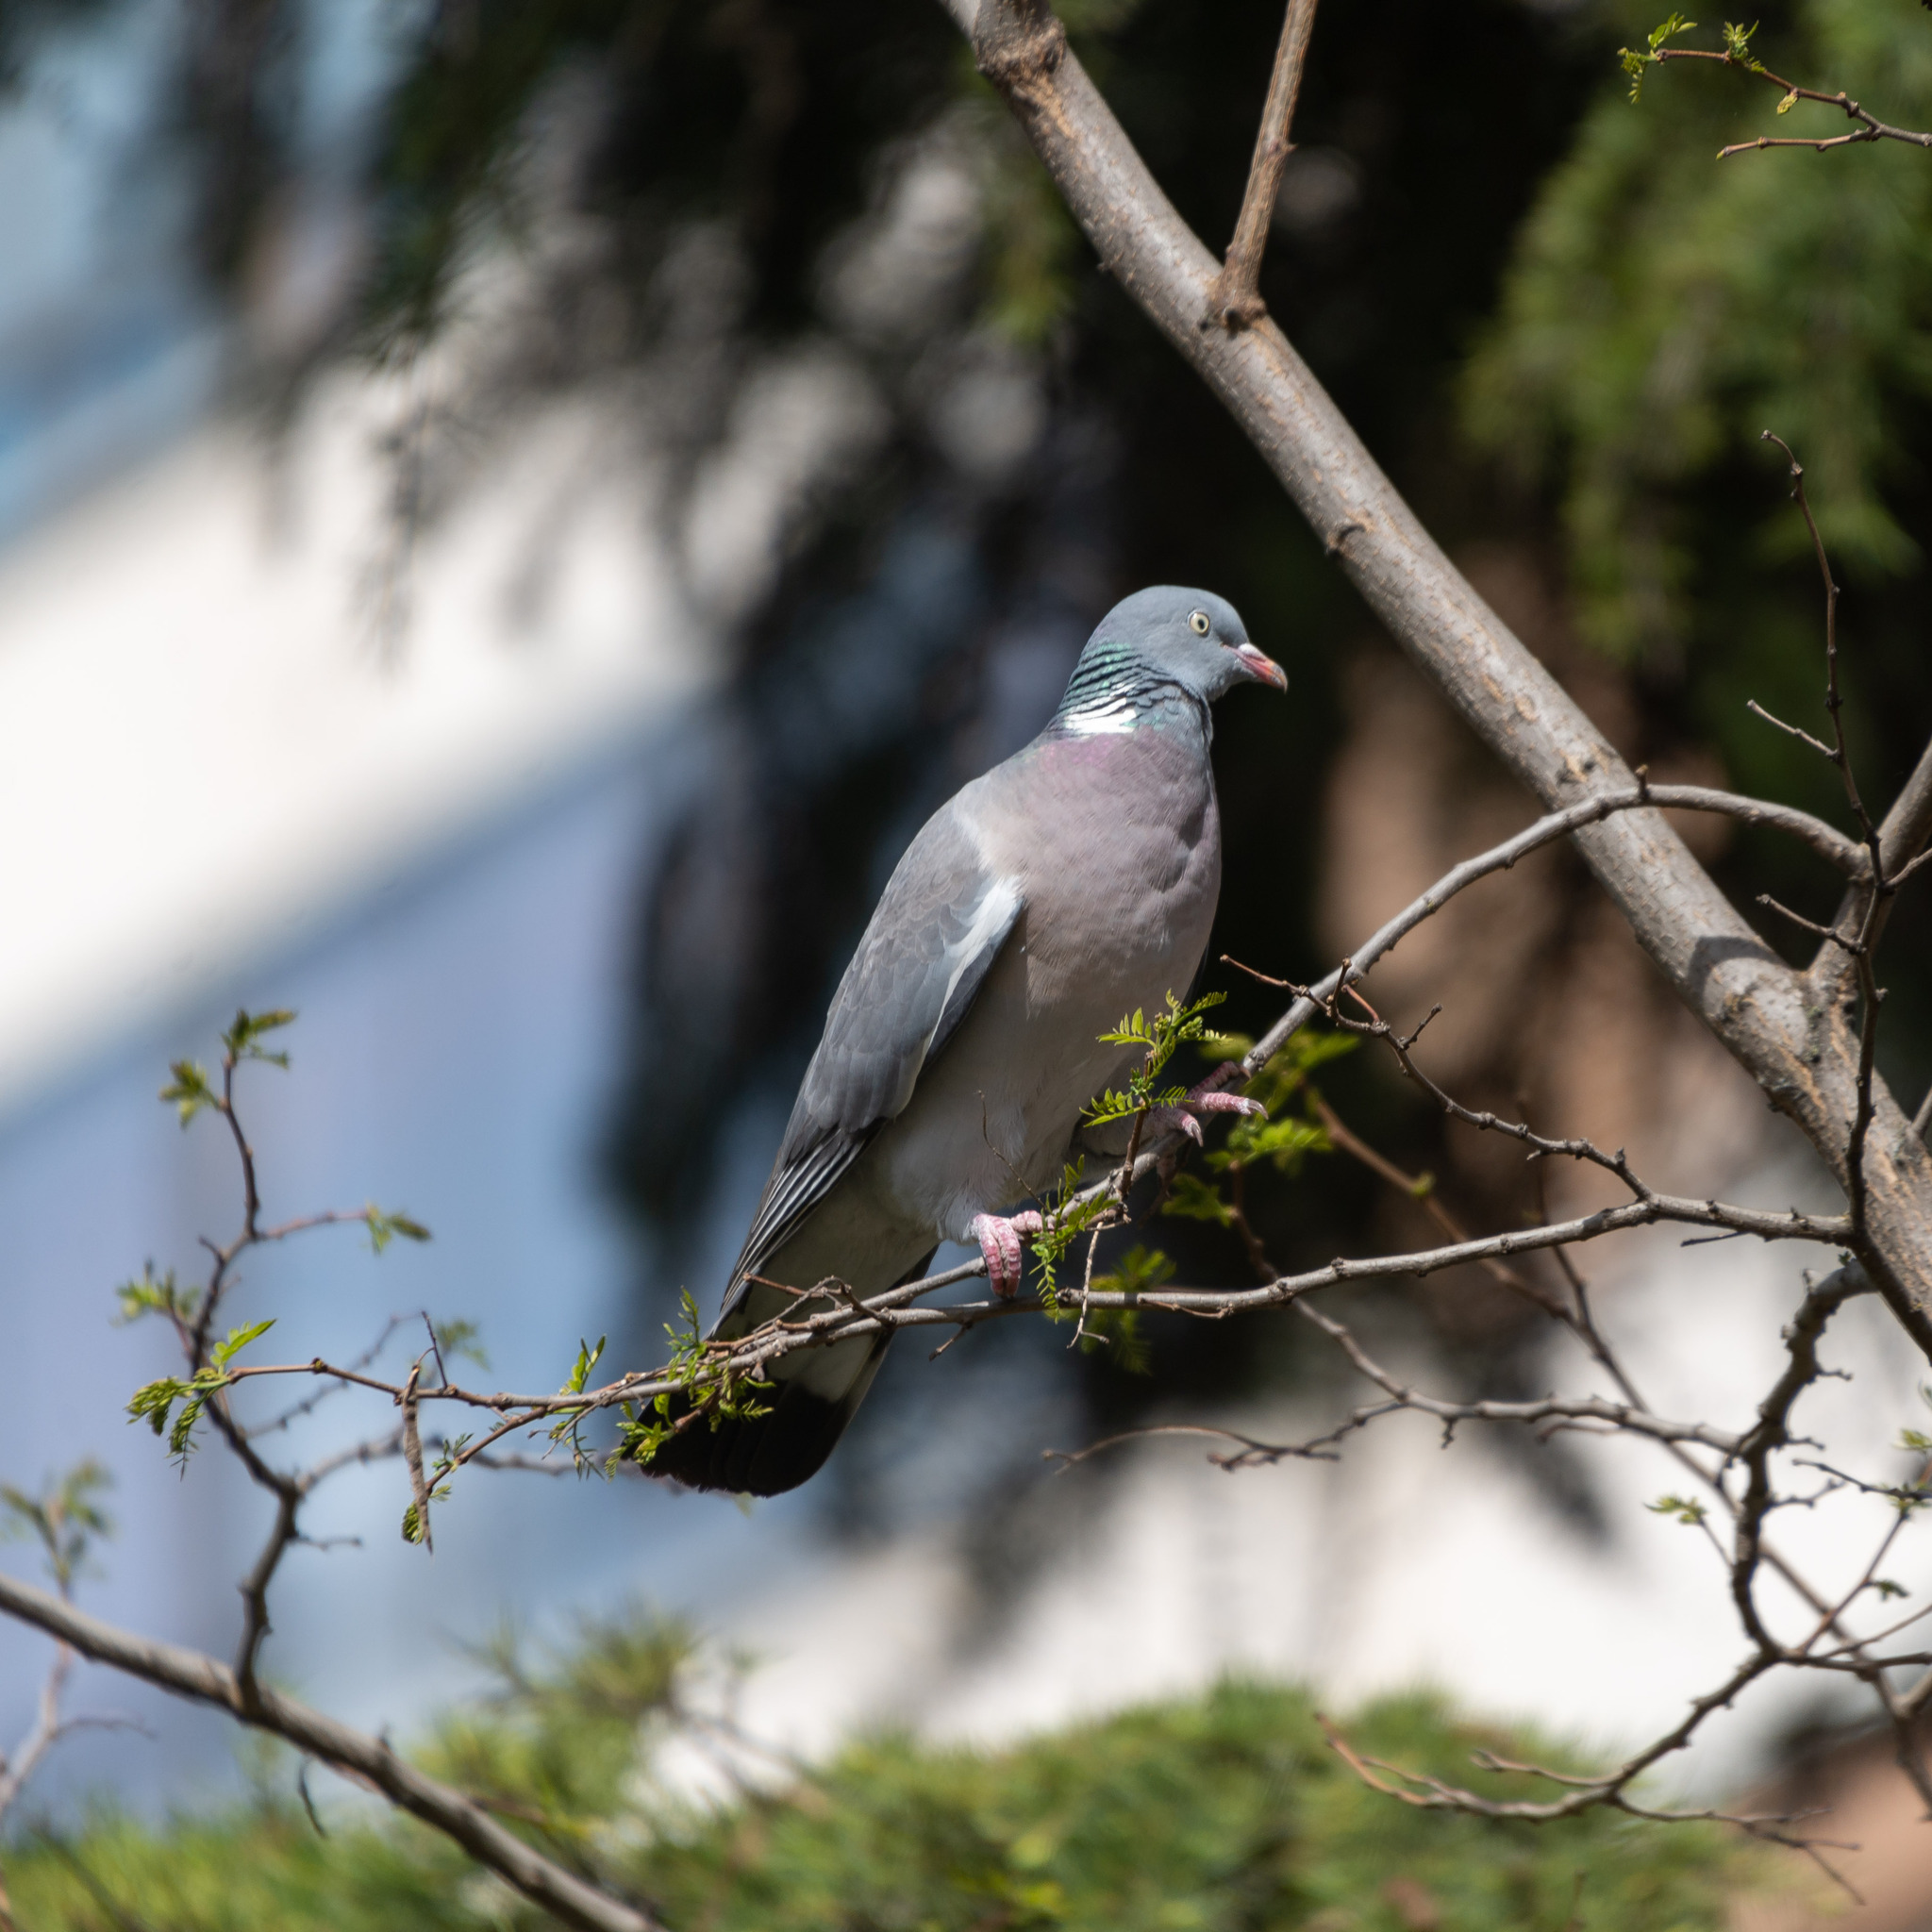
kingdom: Animalia
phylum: Chordata
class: Aves
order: Columbiformes
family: Columbidae
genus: Columba
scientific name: Columba palumbus
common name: Common wood pigeon
